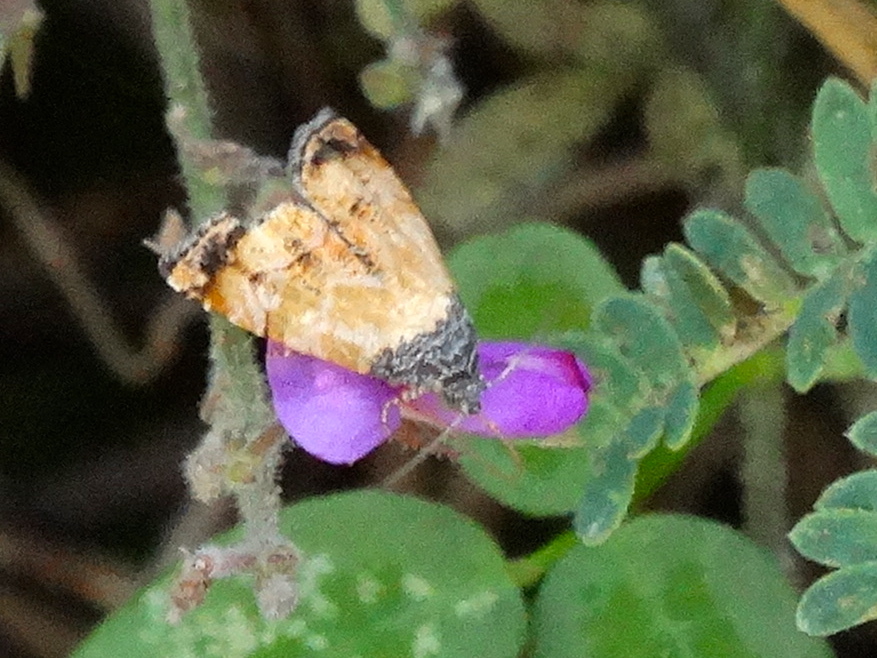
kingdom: Animalia
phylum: Arthropoda
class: Insecta
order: Lepidoptera
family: Noctuidae
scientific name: Noctuidae
